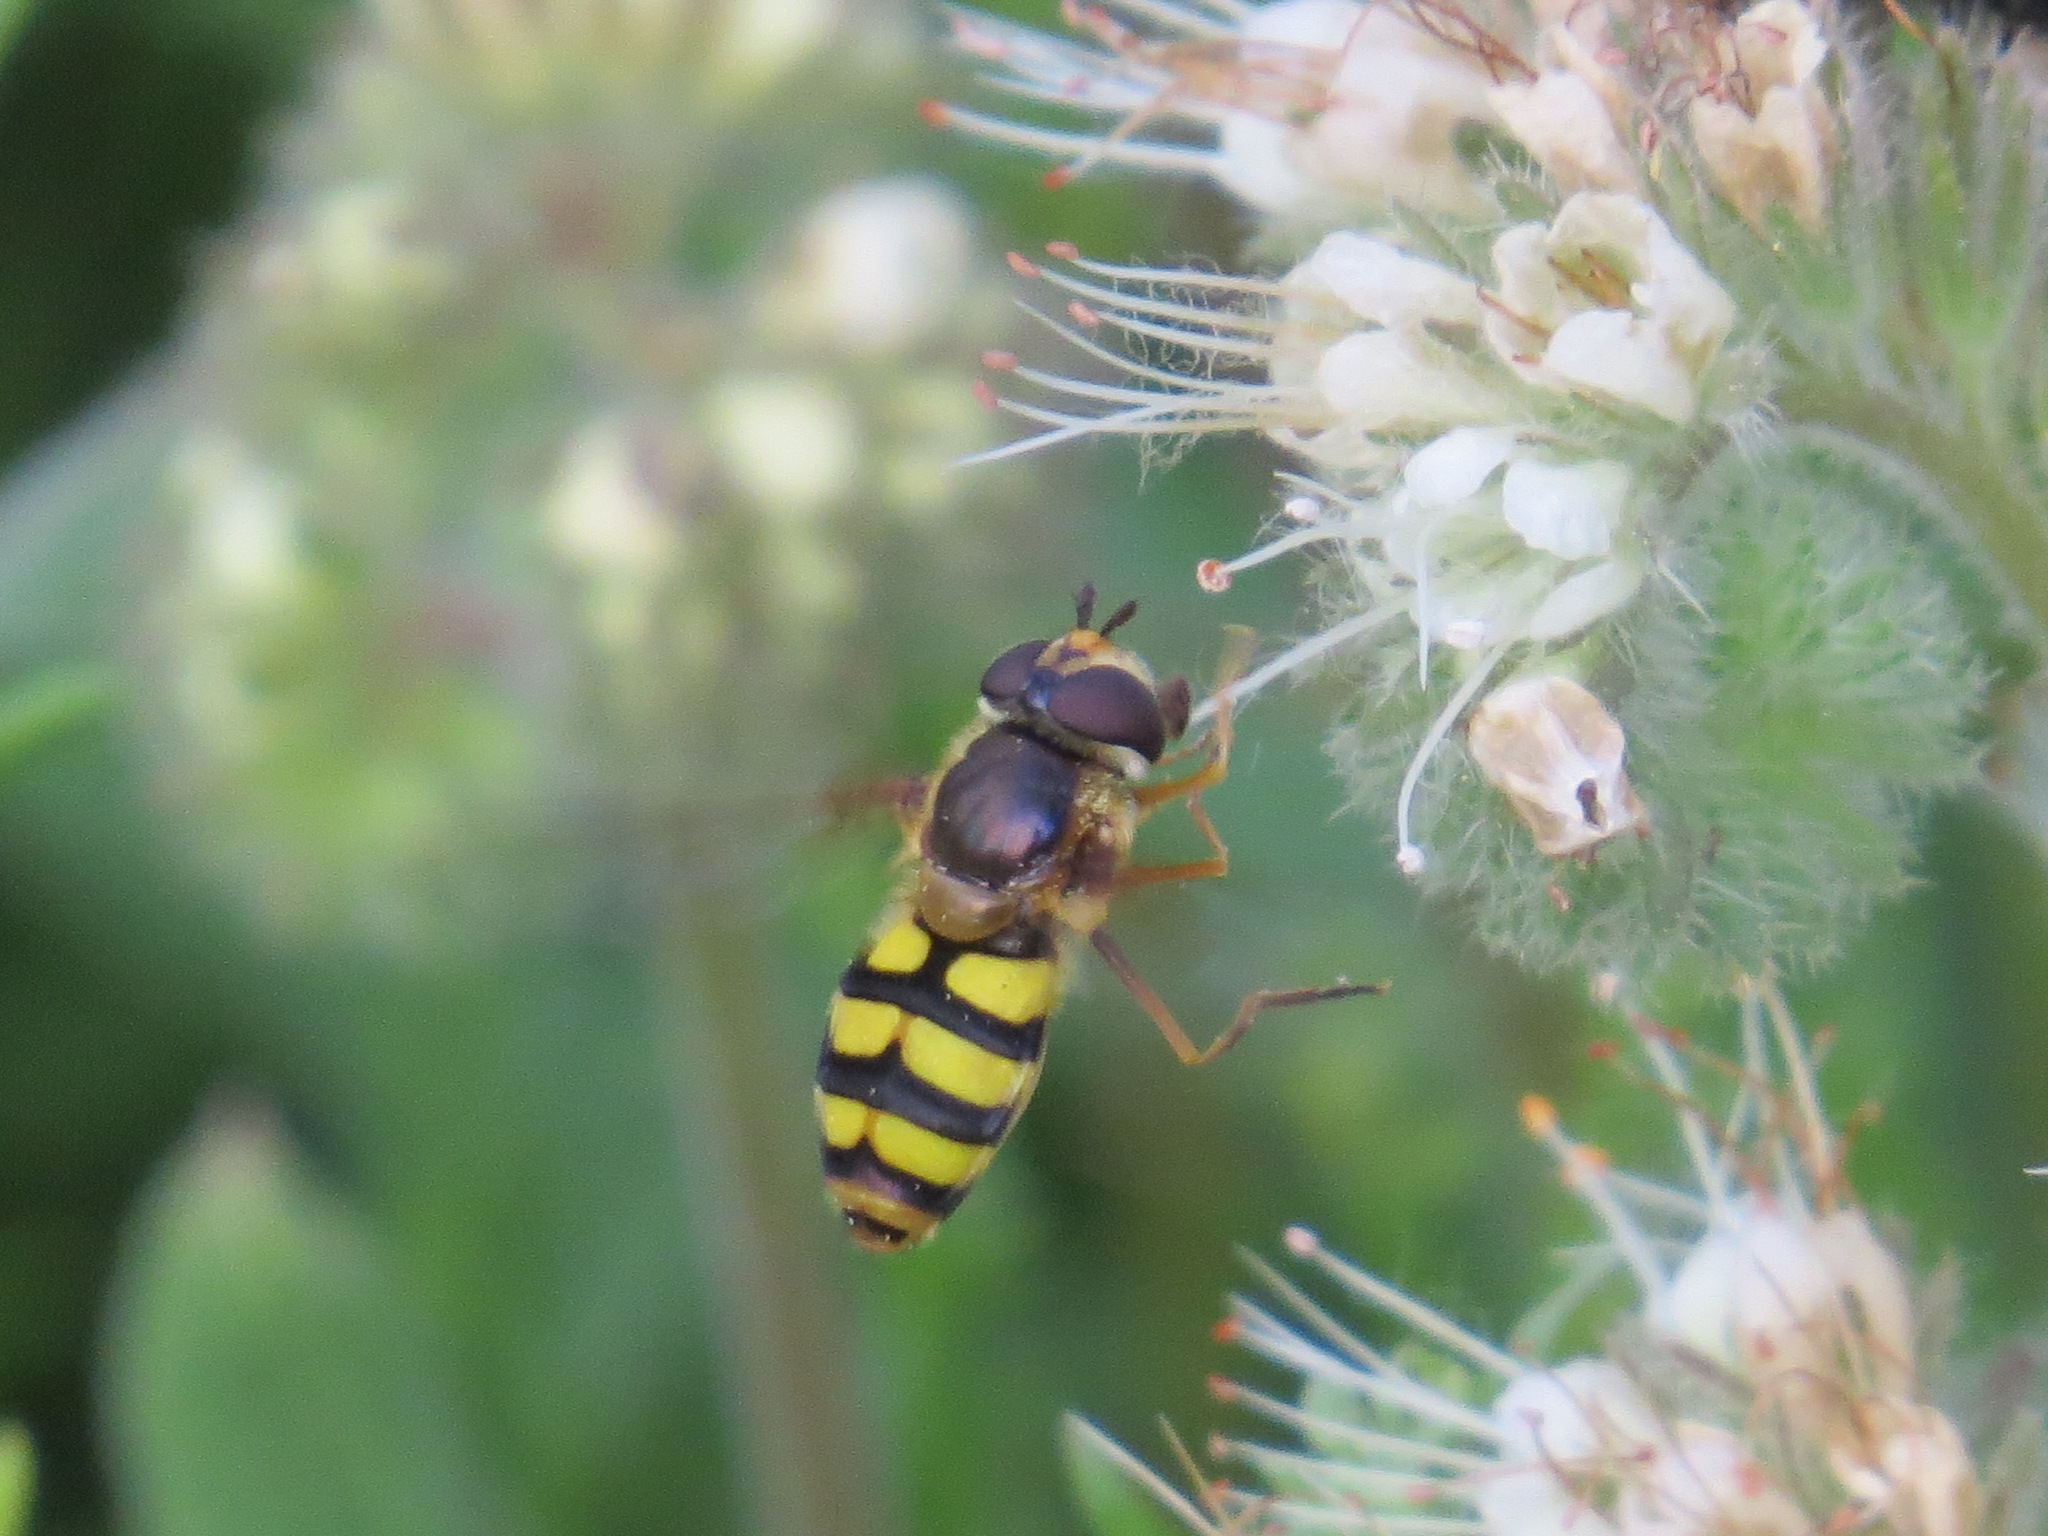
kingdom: Animalia
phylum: Arthropoda
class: Insecta
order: Diptera
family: Syrphidae
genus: Megasyrphus
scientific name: Megasyrphus laxus
